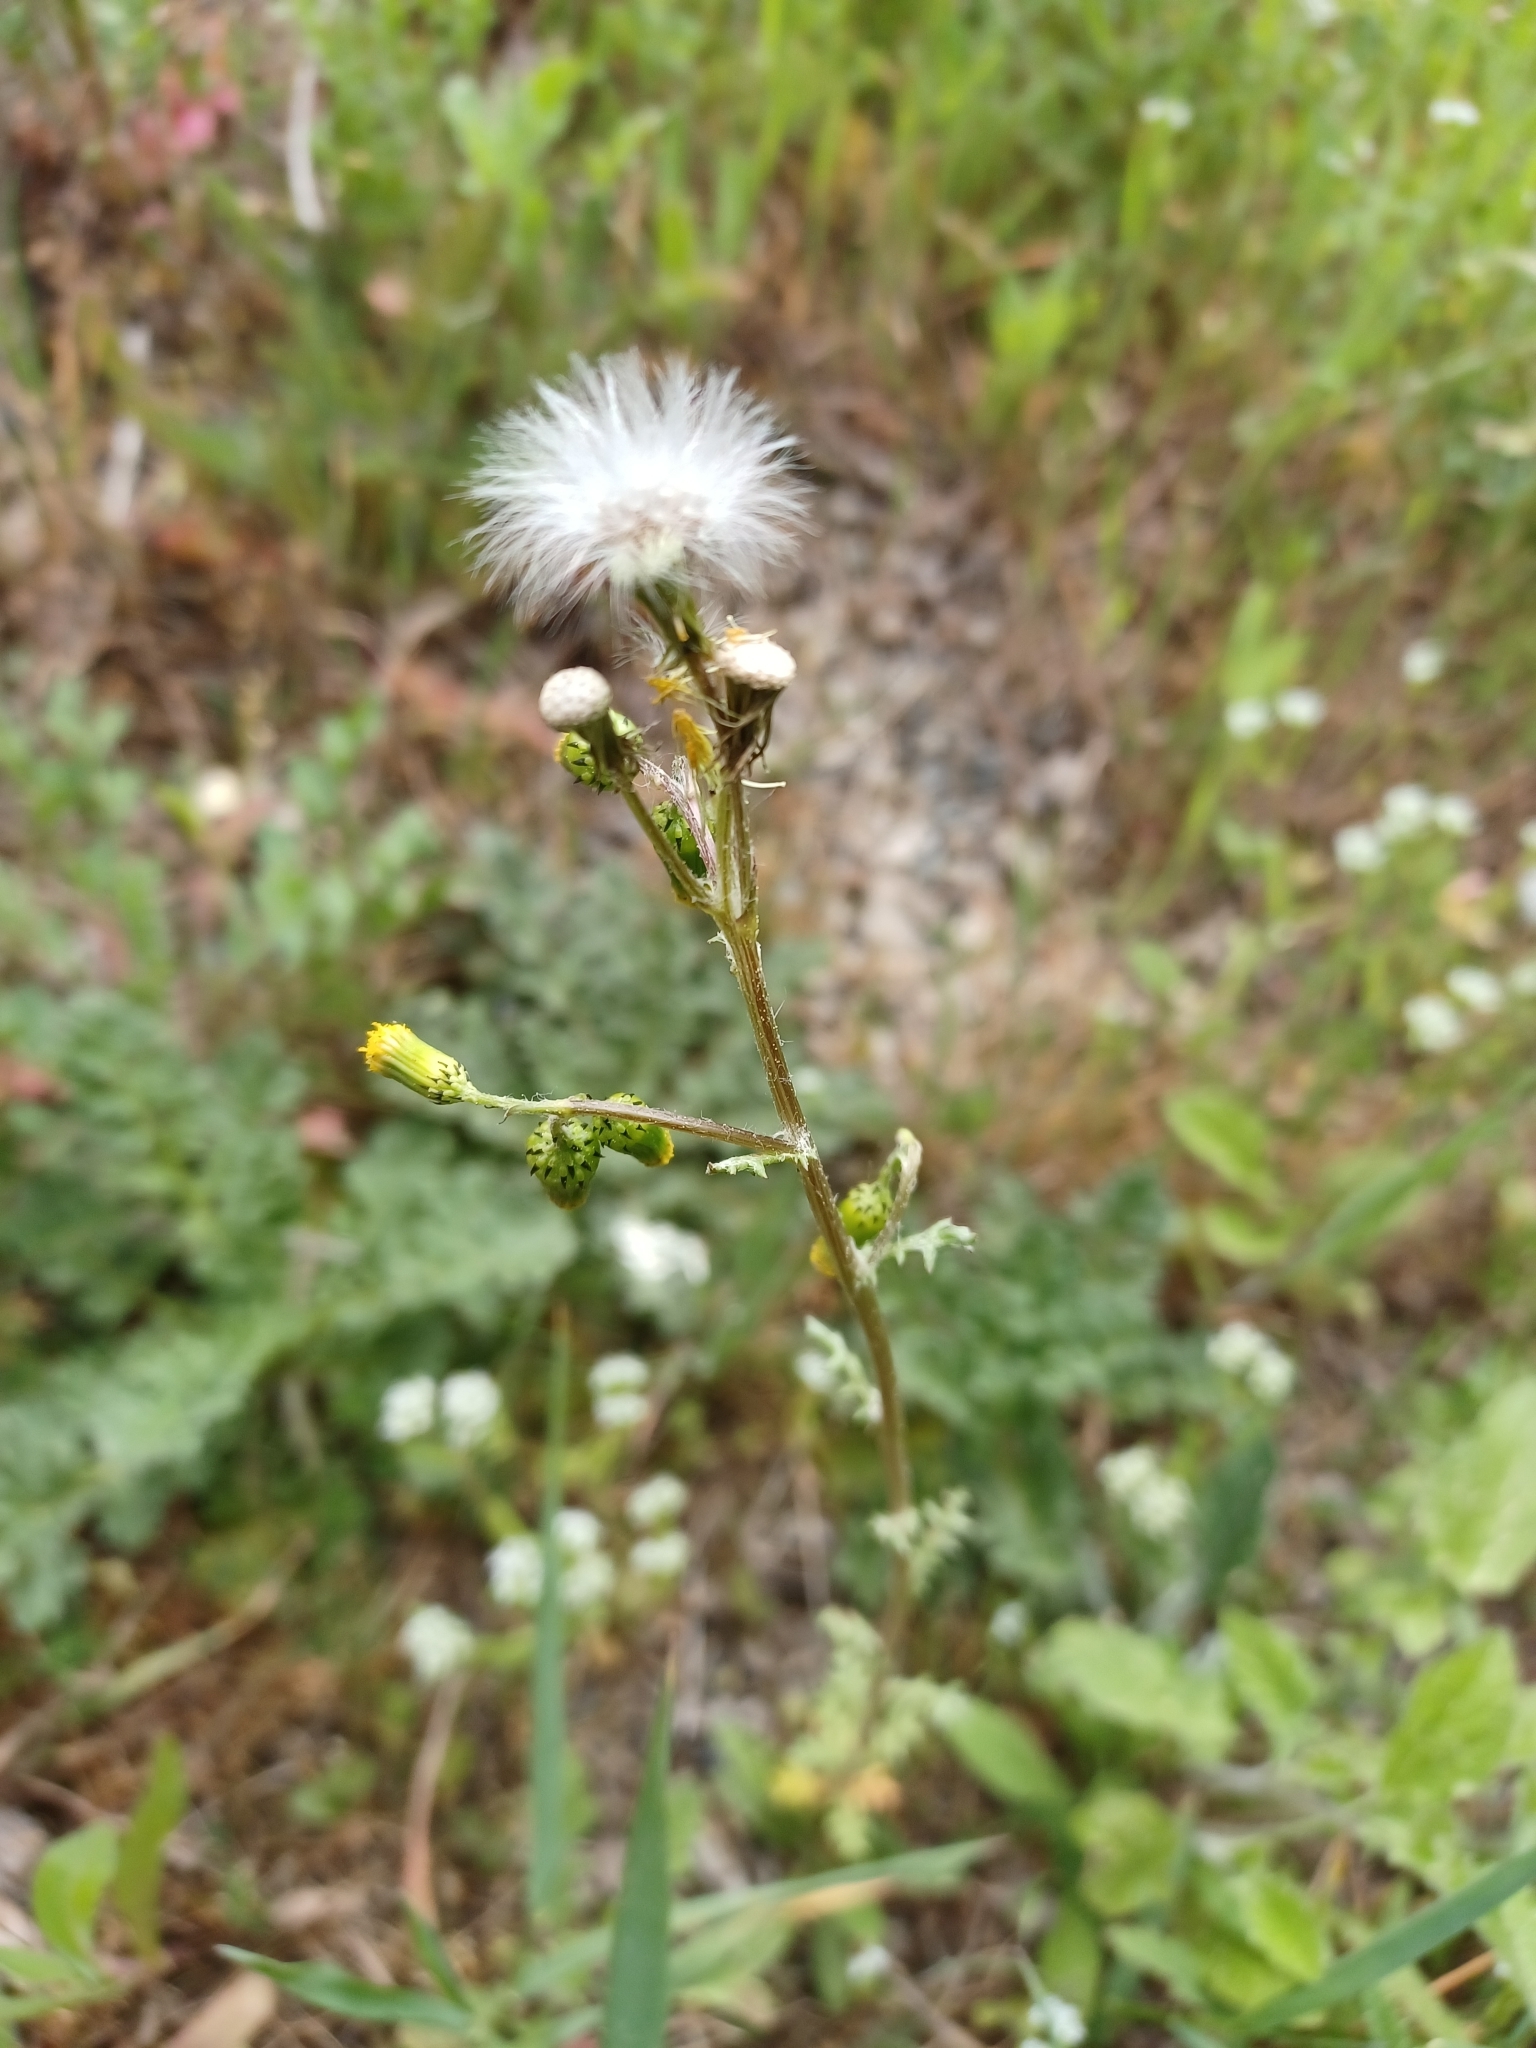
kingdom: Plantae
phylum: Tracheophyta
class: Magnoliopsida
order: Asterales
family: Asteraceae
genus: Senecio
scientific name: Senecio vulgaris
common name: Old-man-in-the-spring
